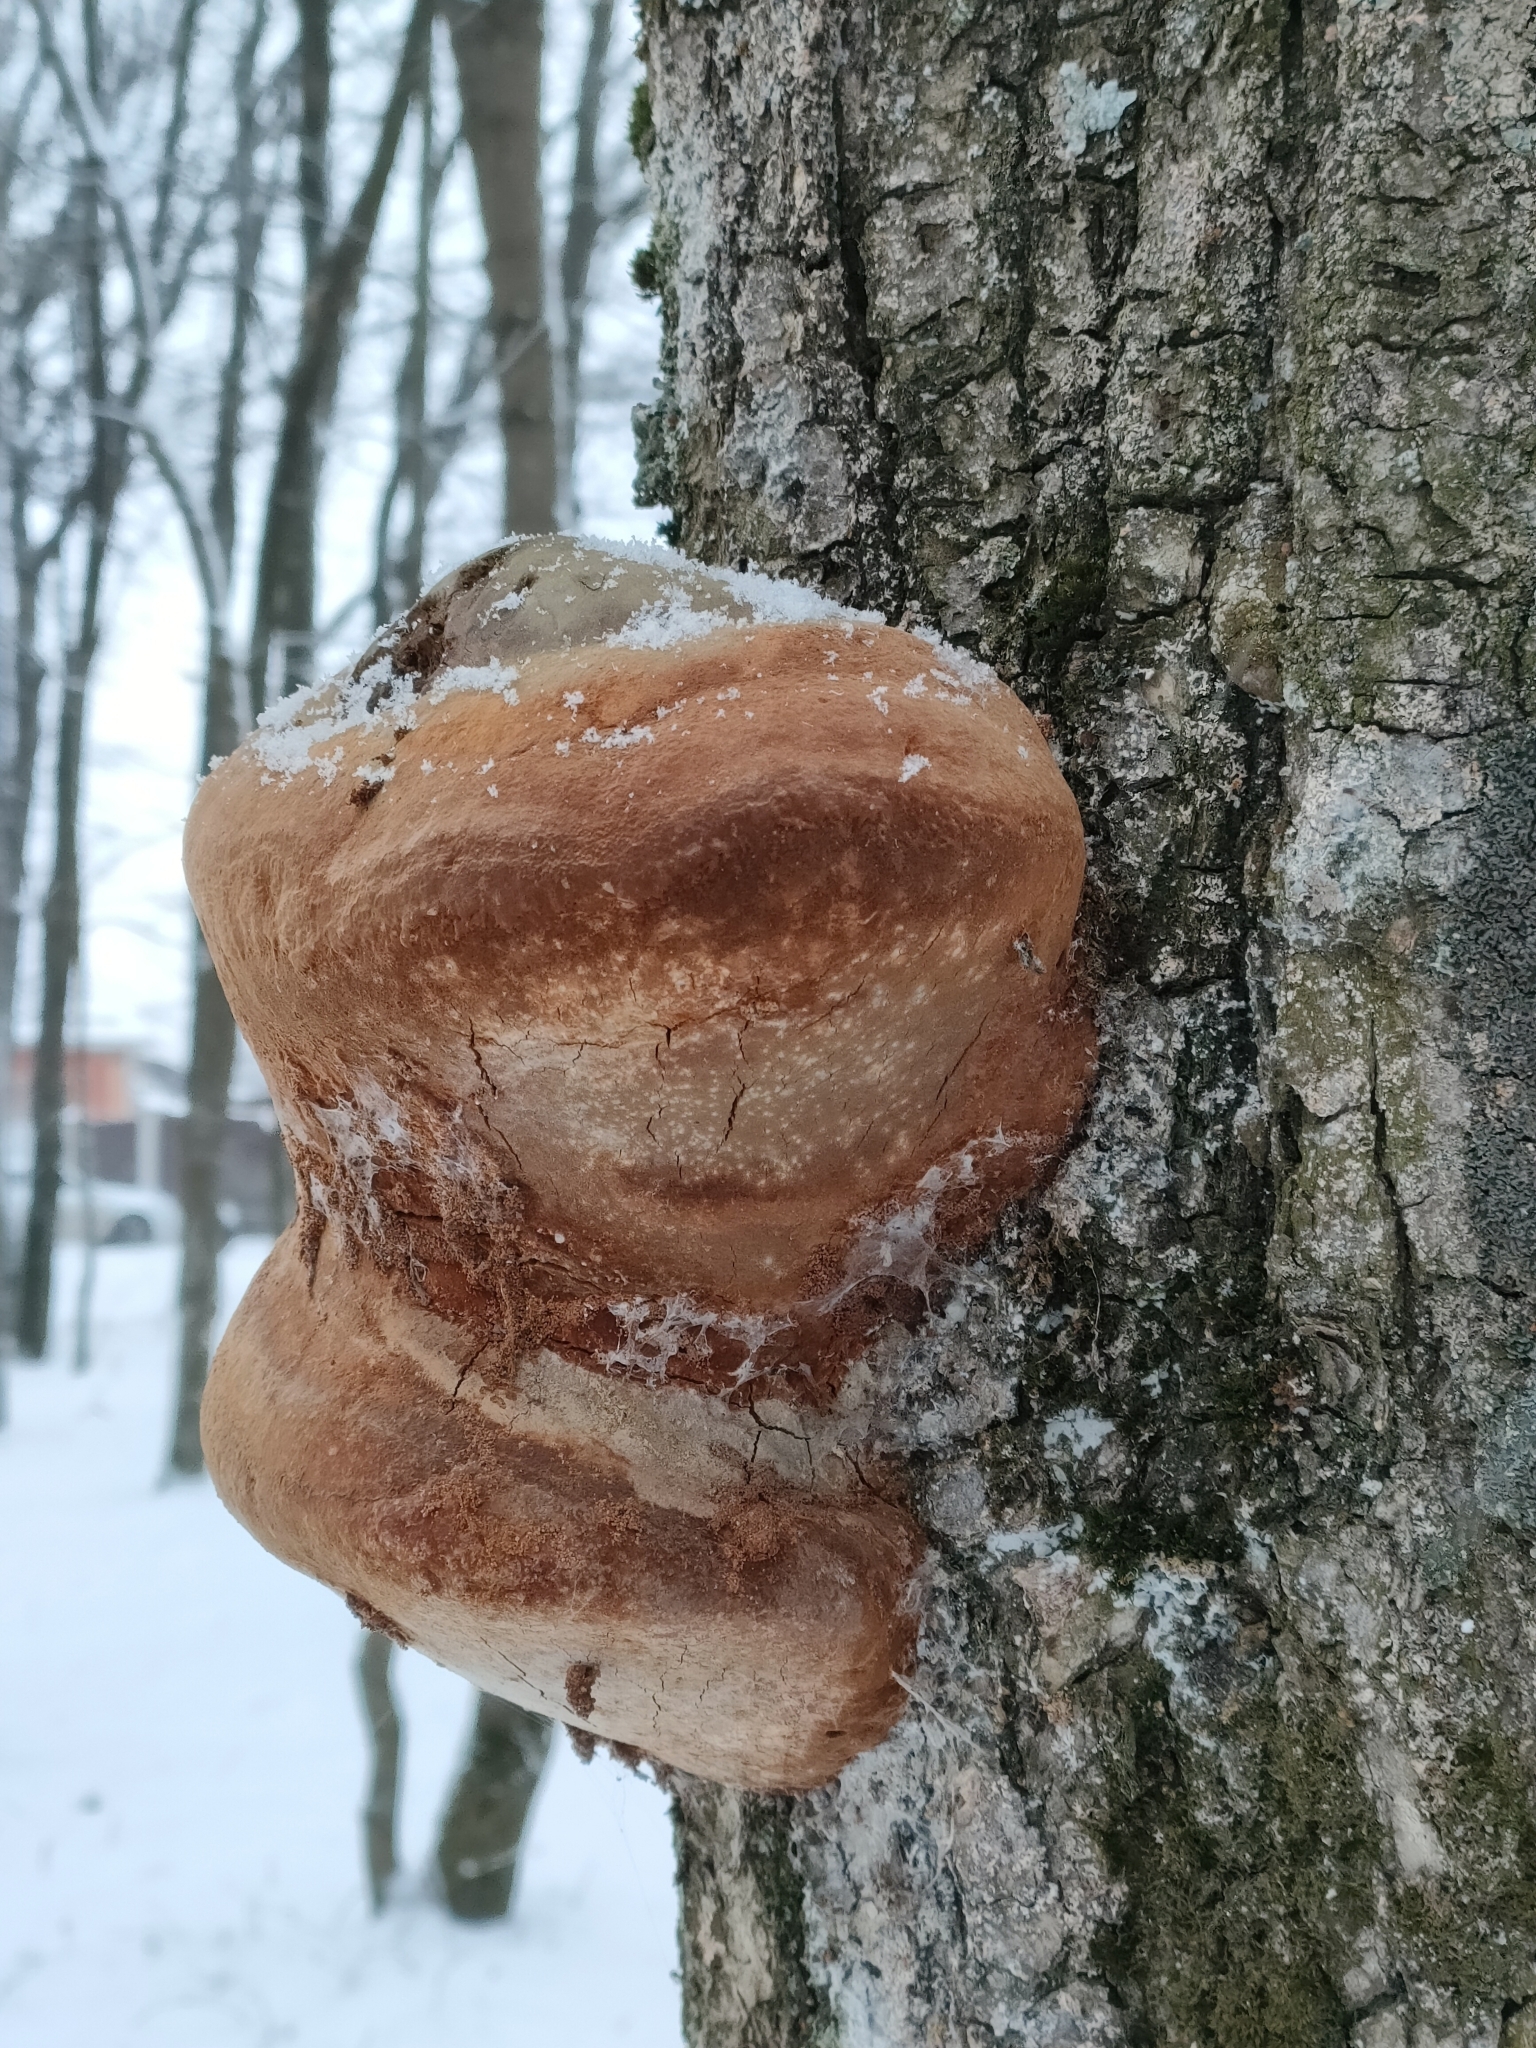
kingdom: Fungi
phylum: Basidiomycota
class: Agaricomycetes
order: Hymenochaetales
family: Hymenochaetaceae
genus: Fomitiporia
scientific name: Fomitiporia robusta
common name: Robust bracket
